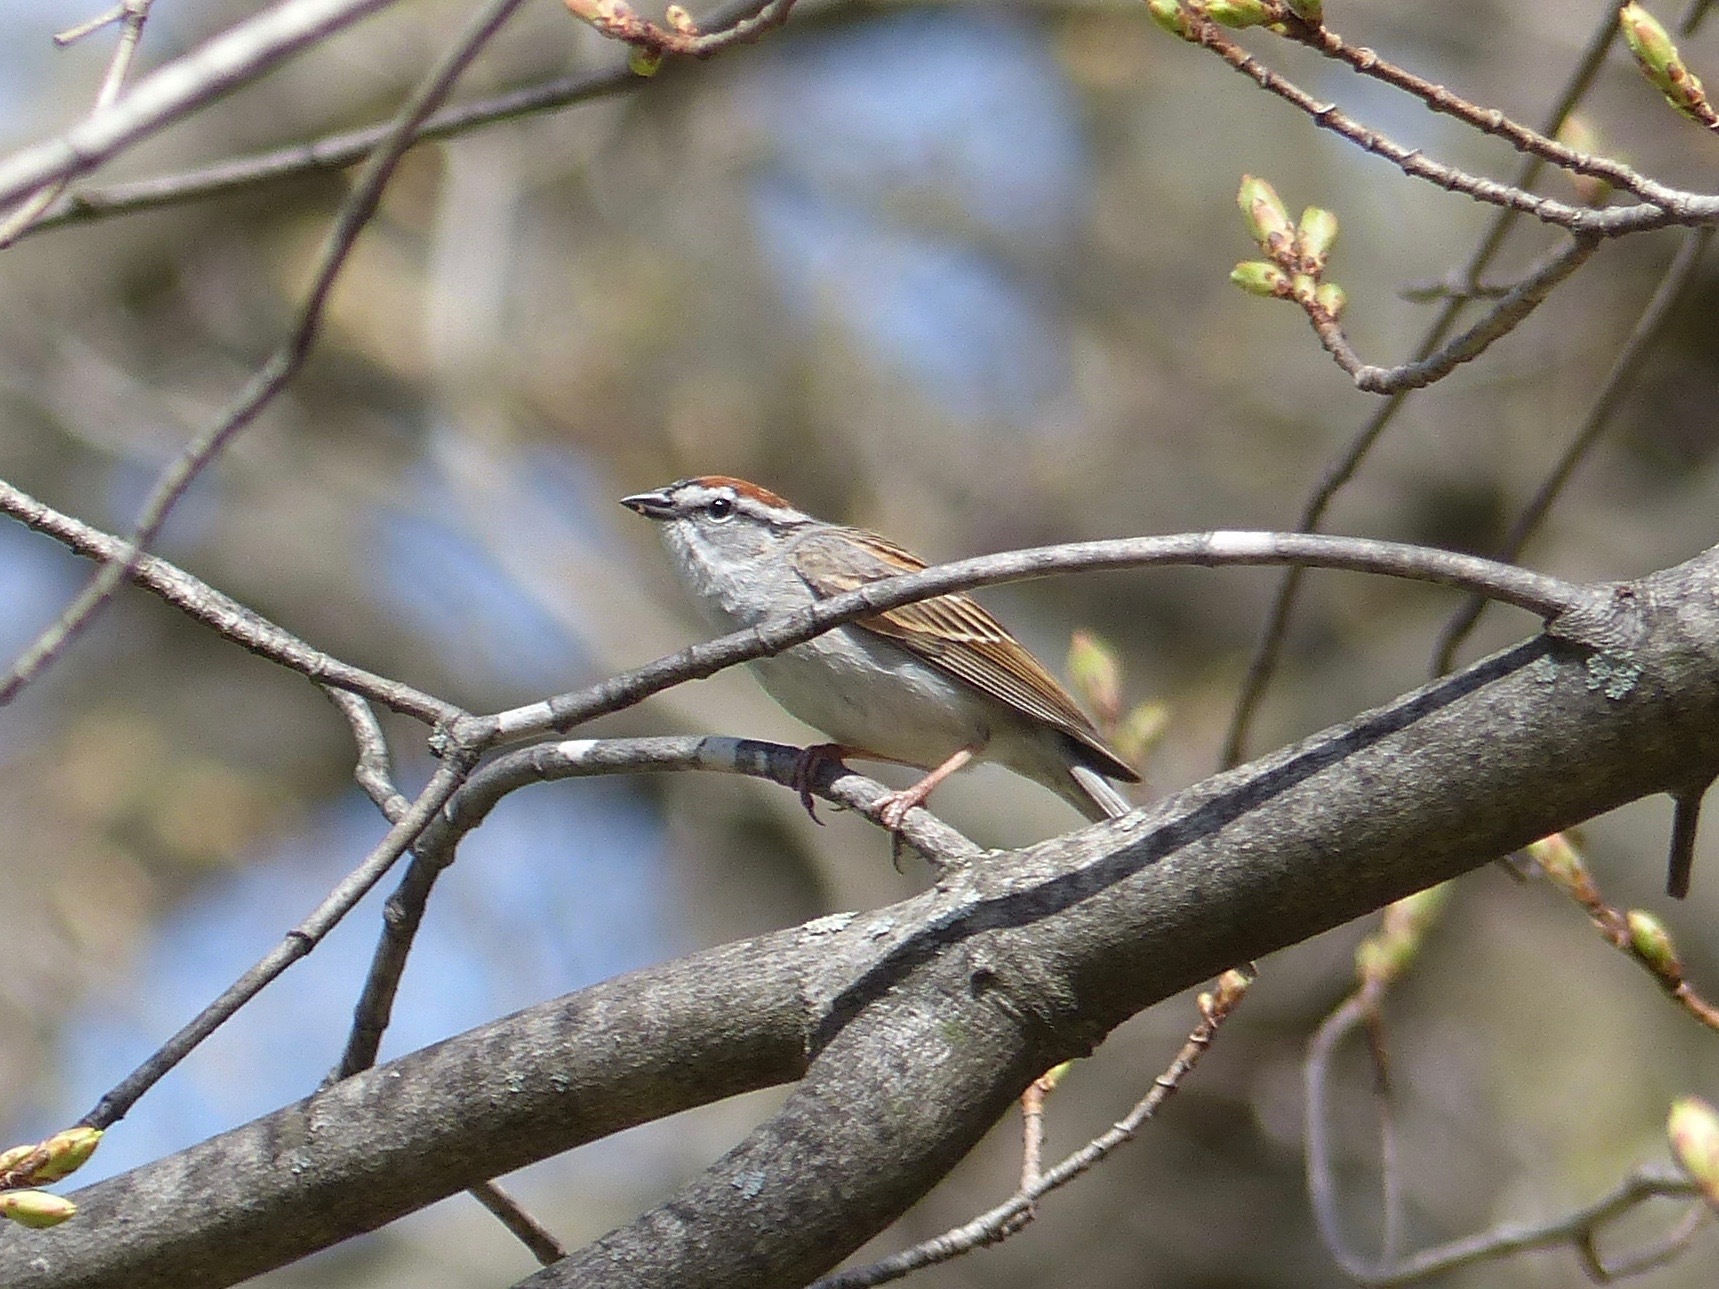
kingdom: Animalia
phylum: Chordata
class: Aves
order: Passeriformes
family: Passerellidae
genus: Spizella
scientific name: Spizella passerina
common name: Chipping sparrow
